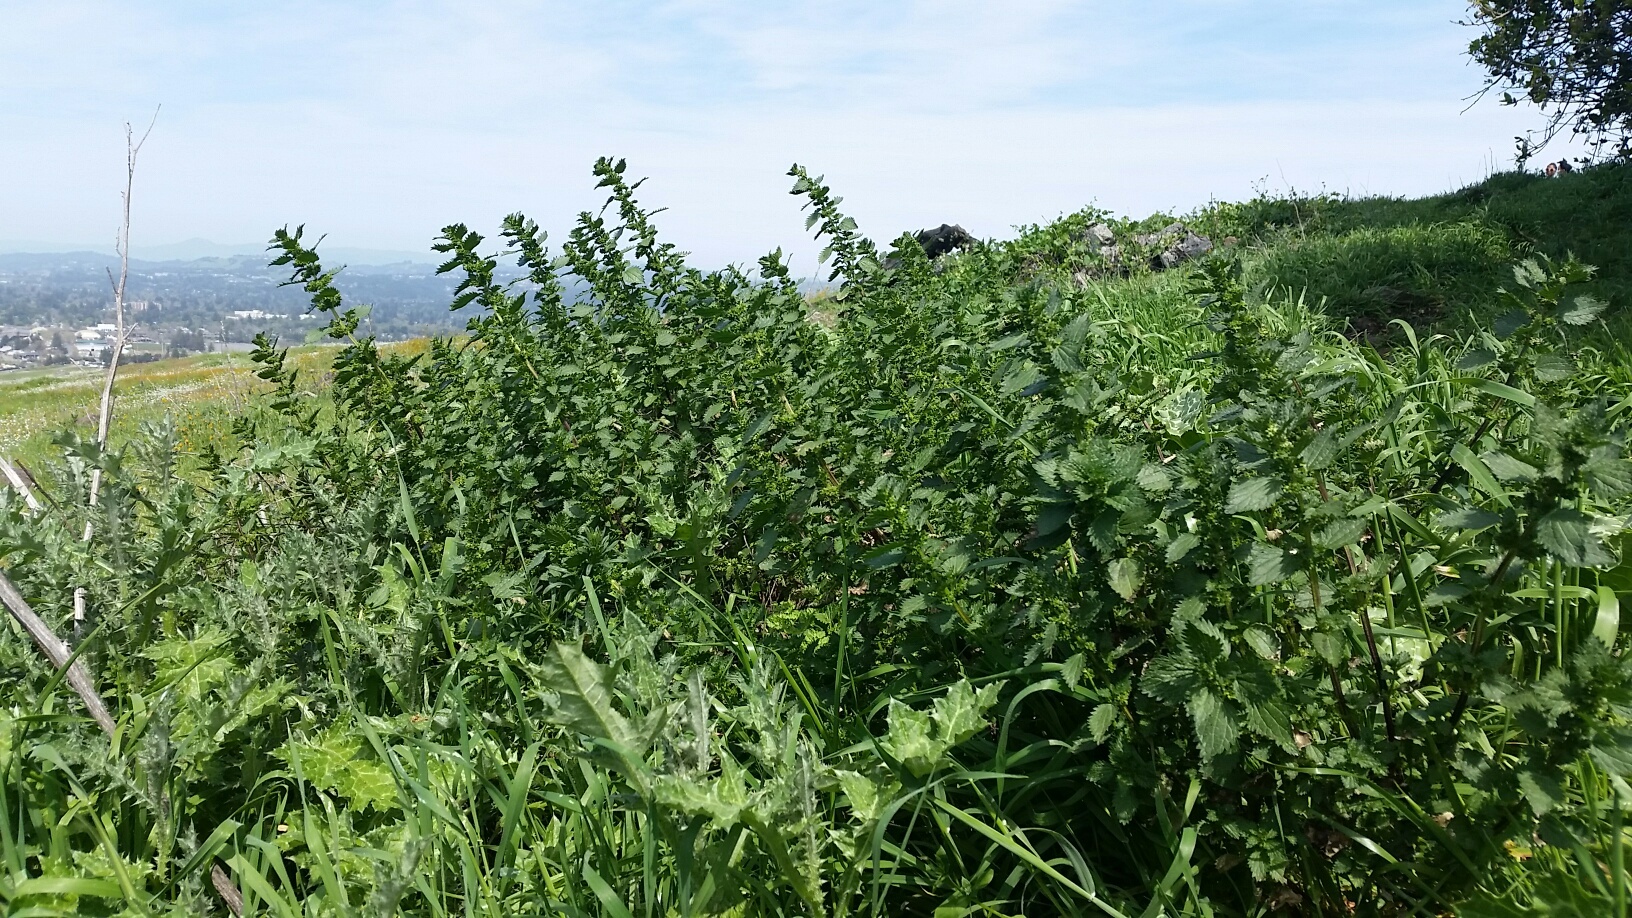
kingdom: Plantae
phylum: Tracheophyta
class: Magnoliopsida
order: Rosales
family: Urticaceae
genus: Urtica
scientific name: Urtica dioica
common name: Common nettle
